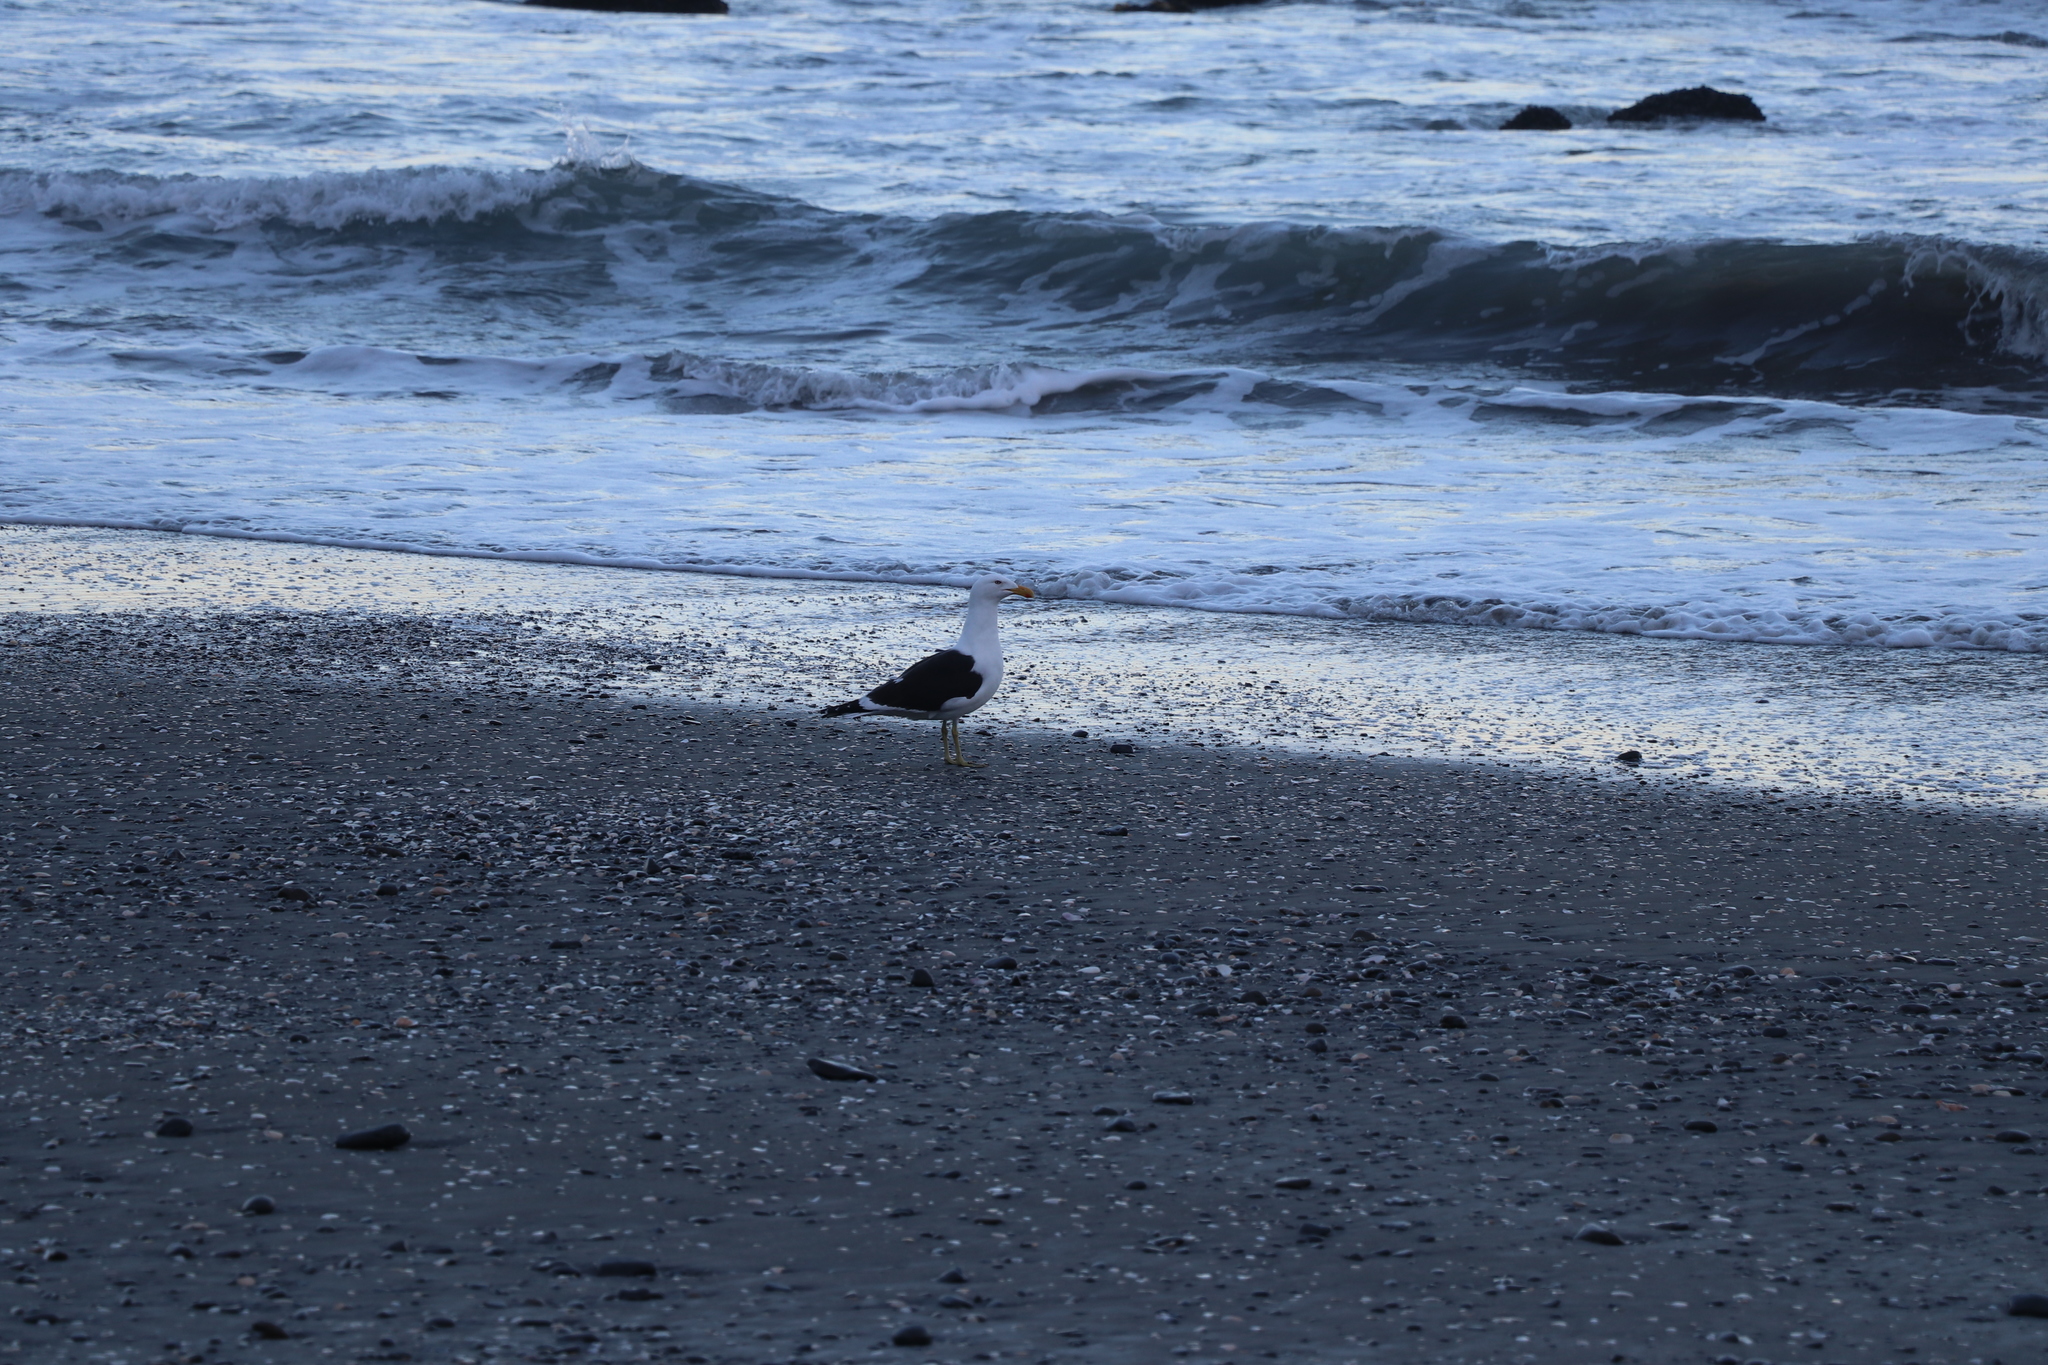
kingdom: Animalia
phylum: Chordata
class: Aves
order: Charadriiformes
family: Laridae
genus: Larus
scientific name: Larus dominicanus
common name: Kelp gull
